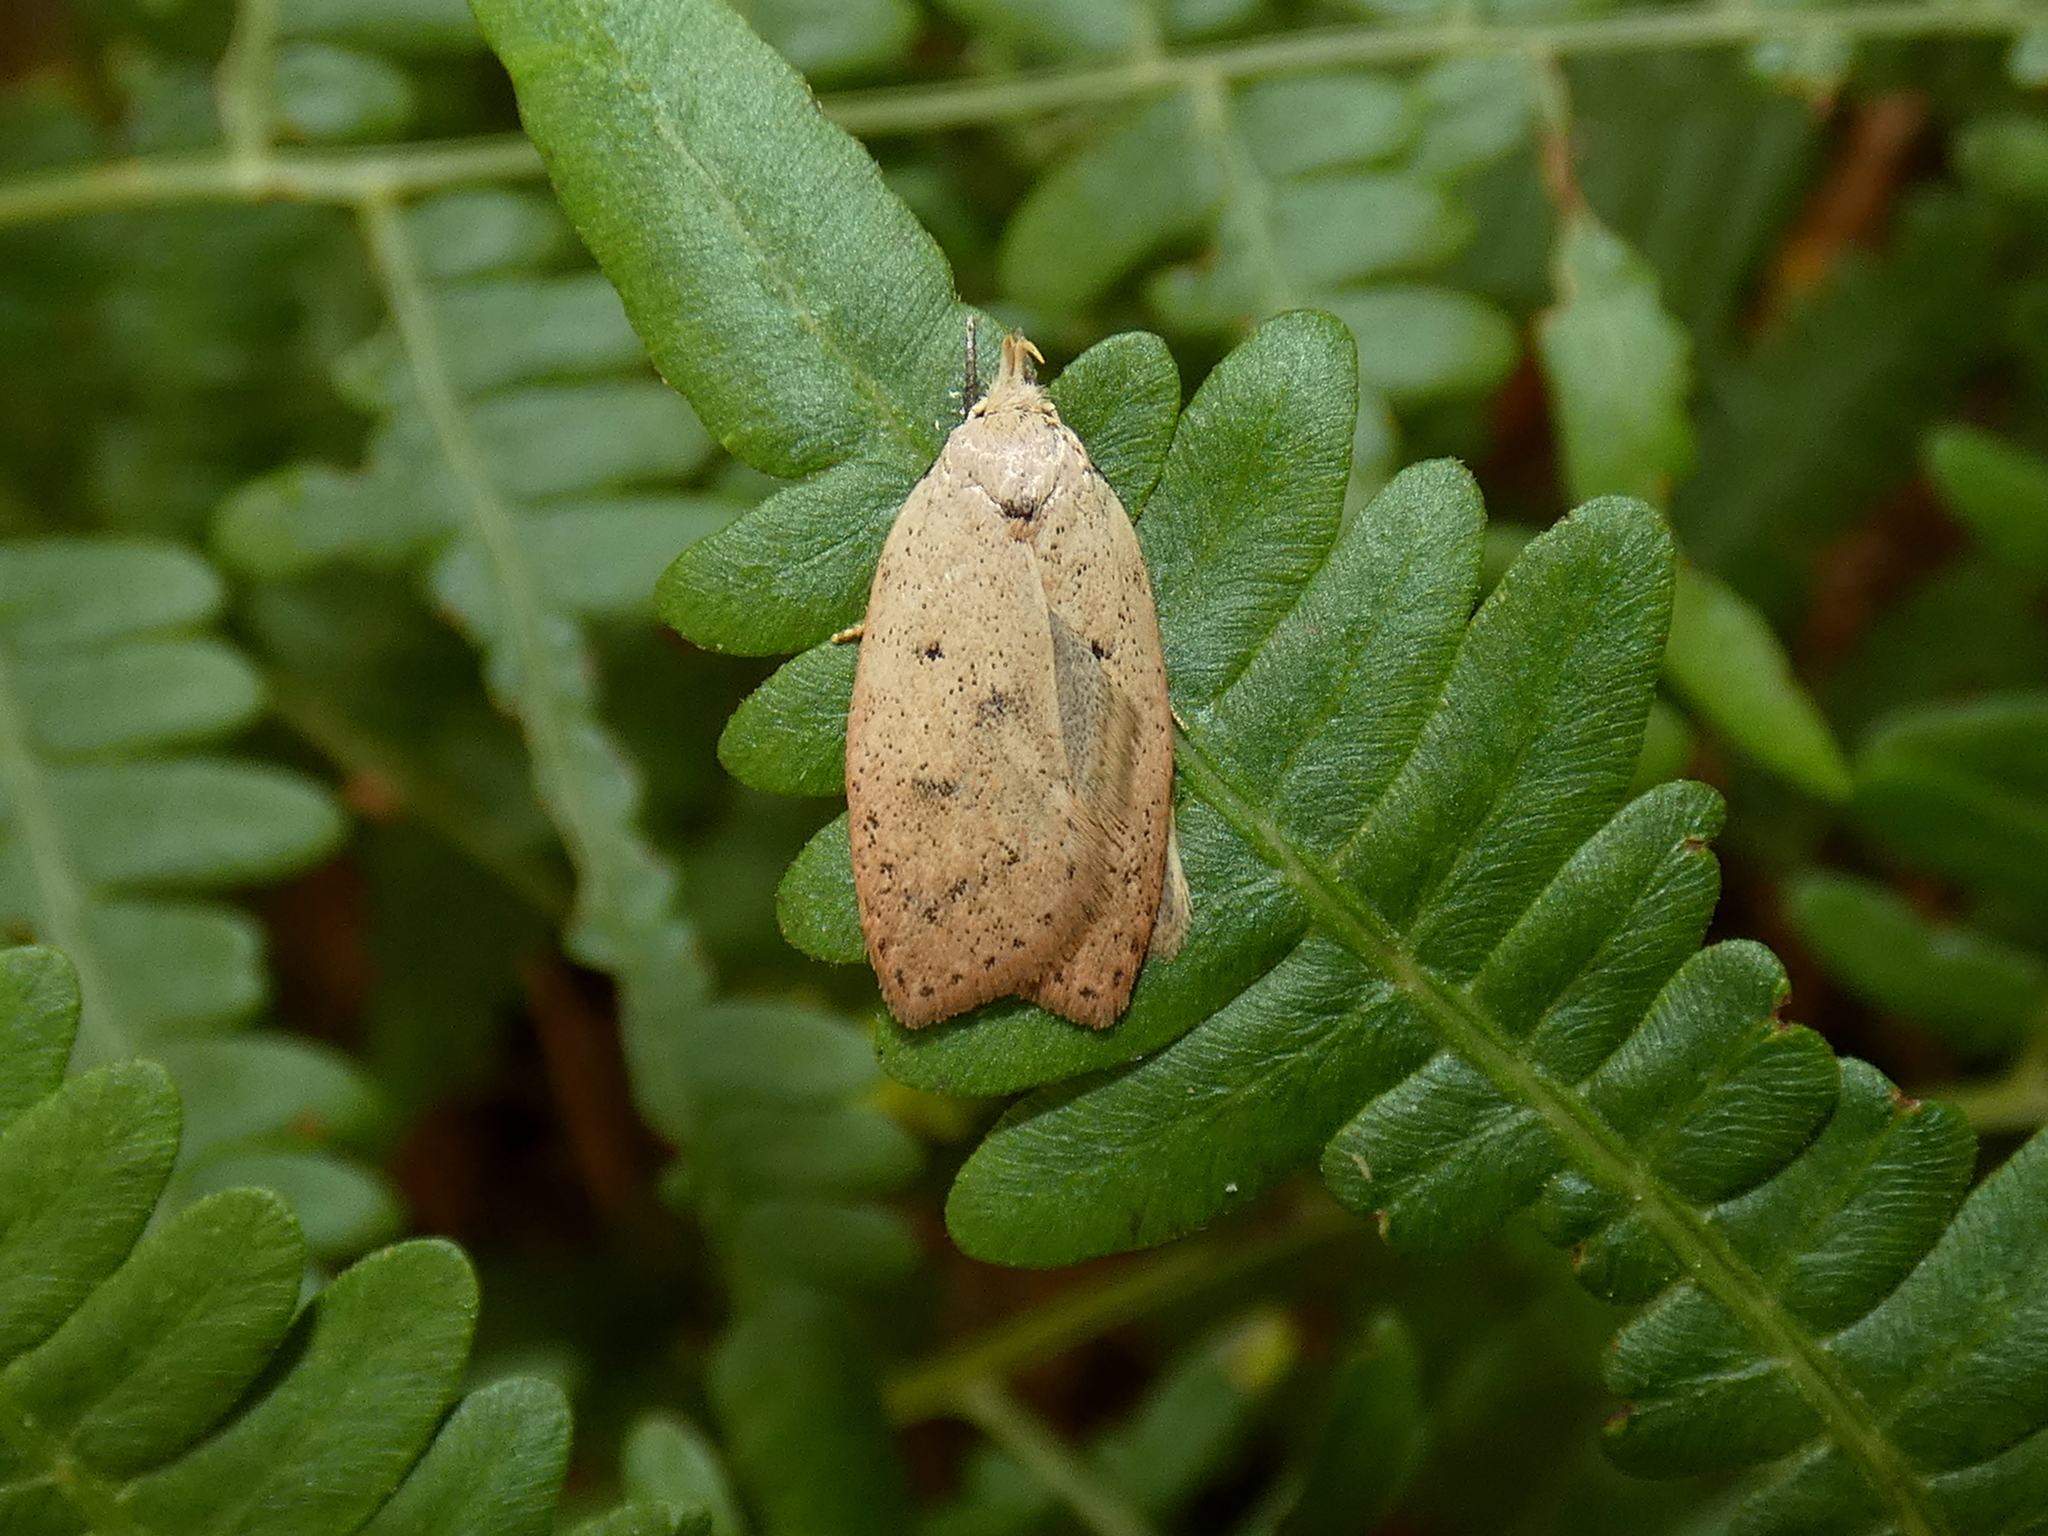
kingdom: Animalia
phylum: Arthropoda
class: Insecta
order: Lepidoptera
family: Peleopodidae
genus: Machimia
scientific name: Machimia tentoriferella
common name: Gold-striped leaftier moth
